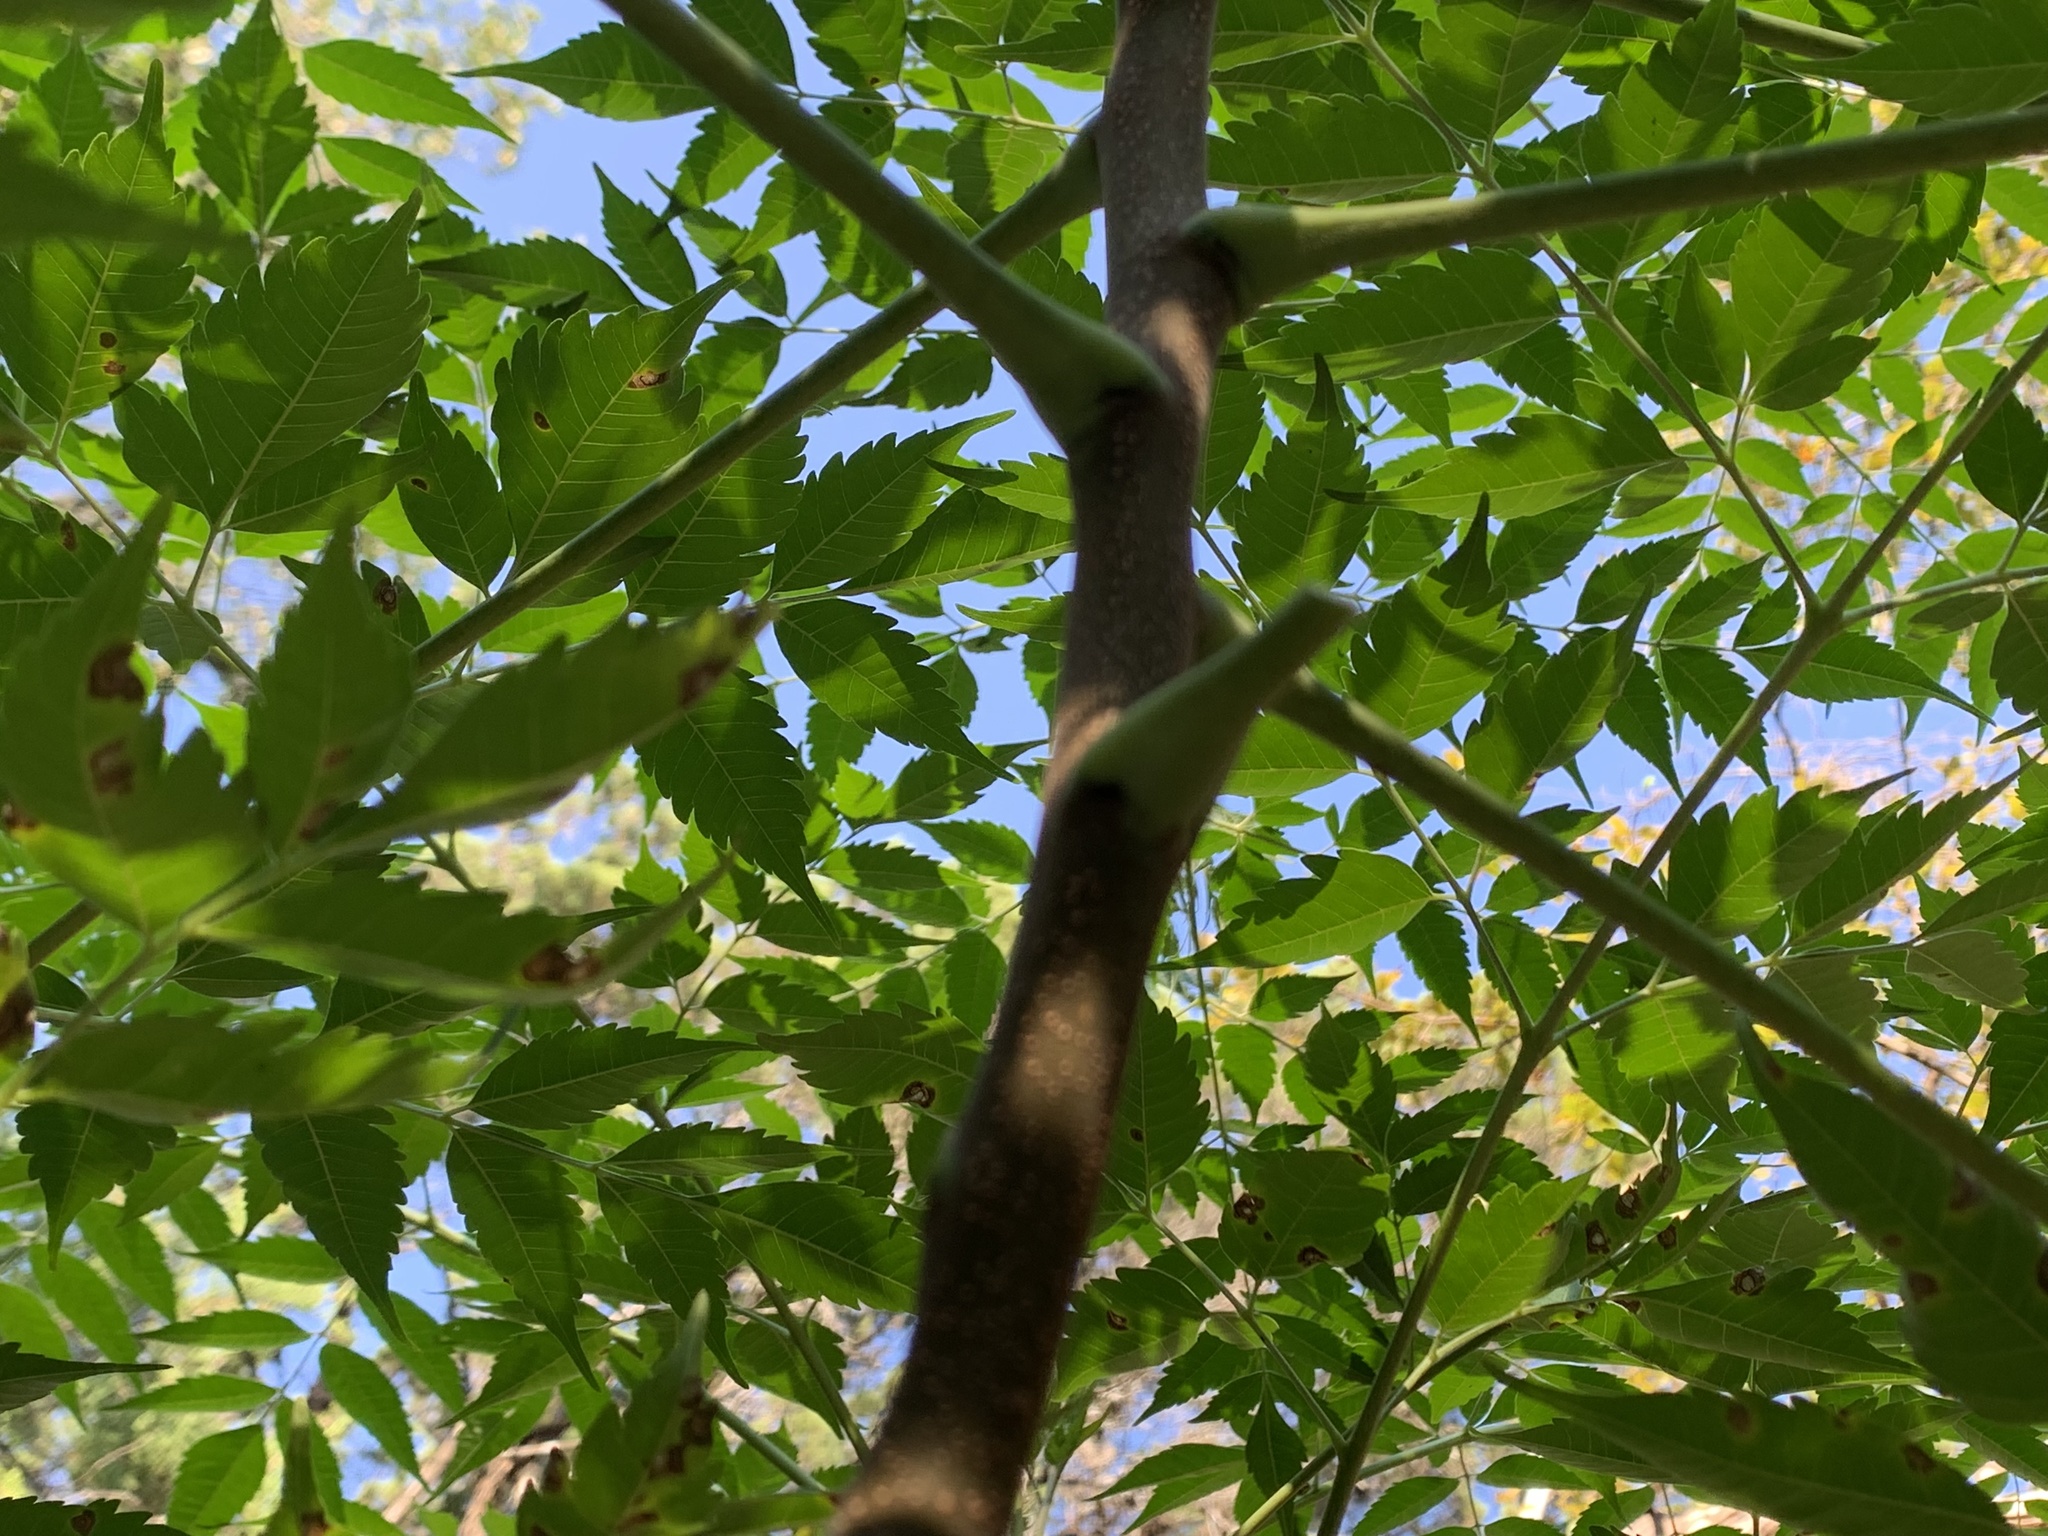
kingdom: Plantae
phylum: Tracheophyta
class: Magnoliopsida
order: Sapindales
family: Meliaceae
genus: Melia
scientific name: Melia azedarach
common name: Chinaberrytree
